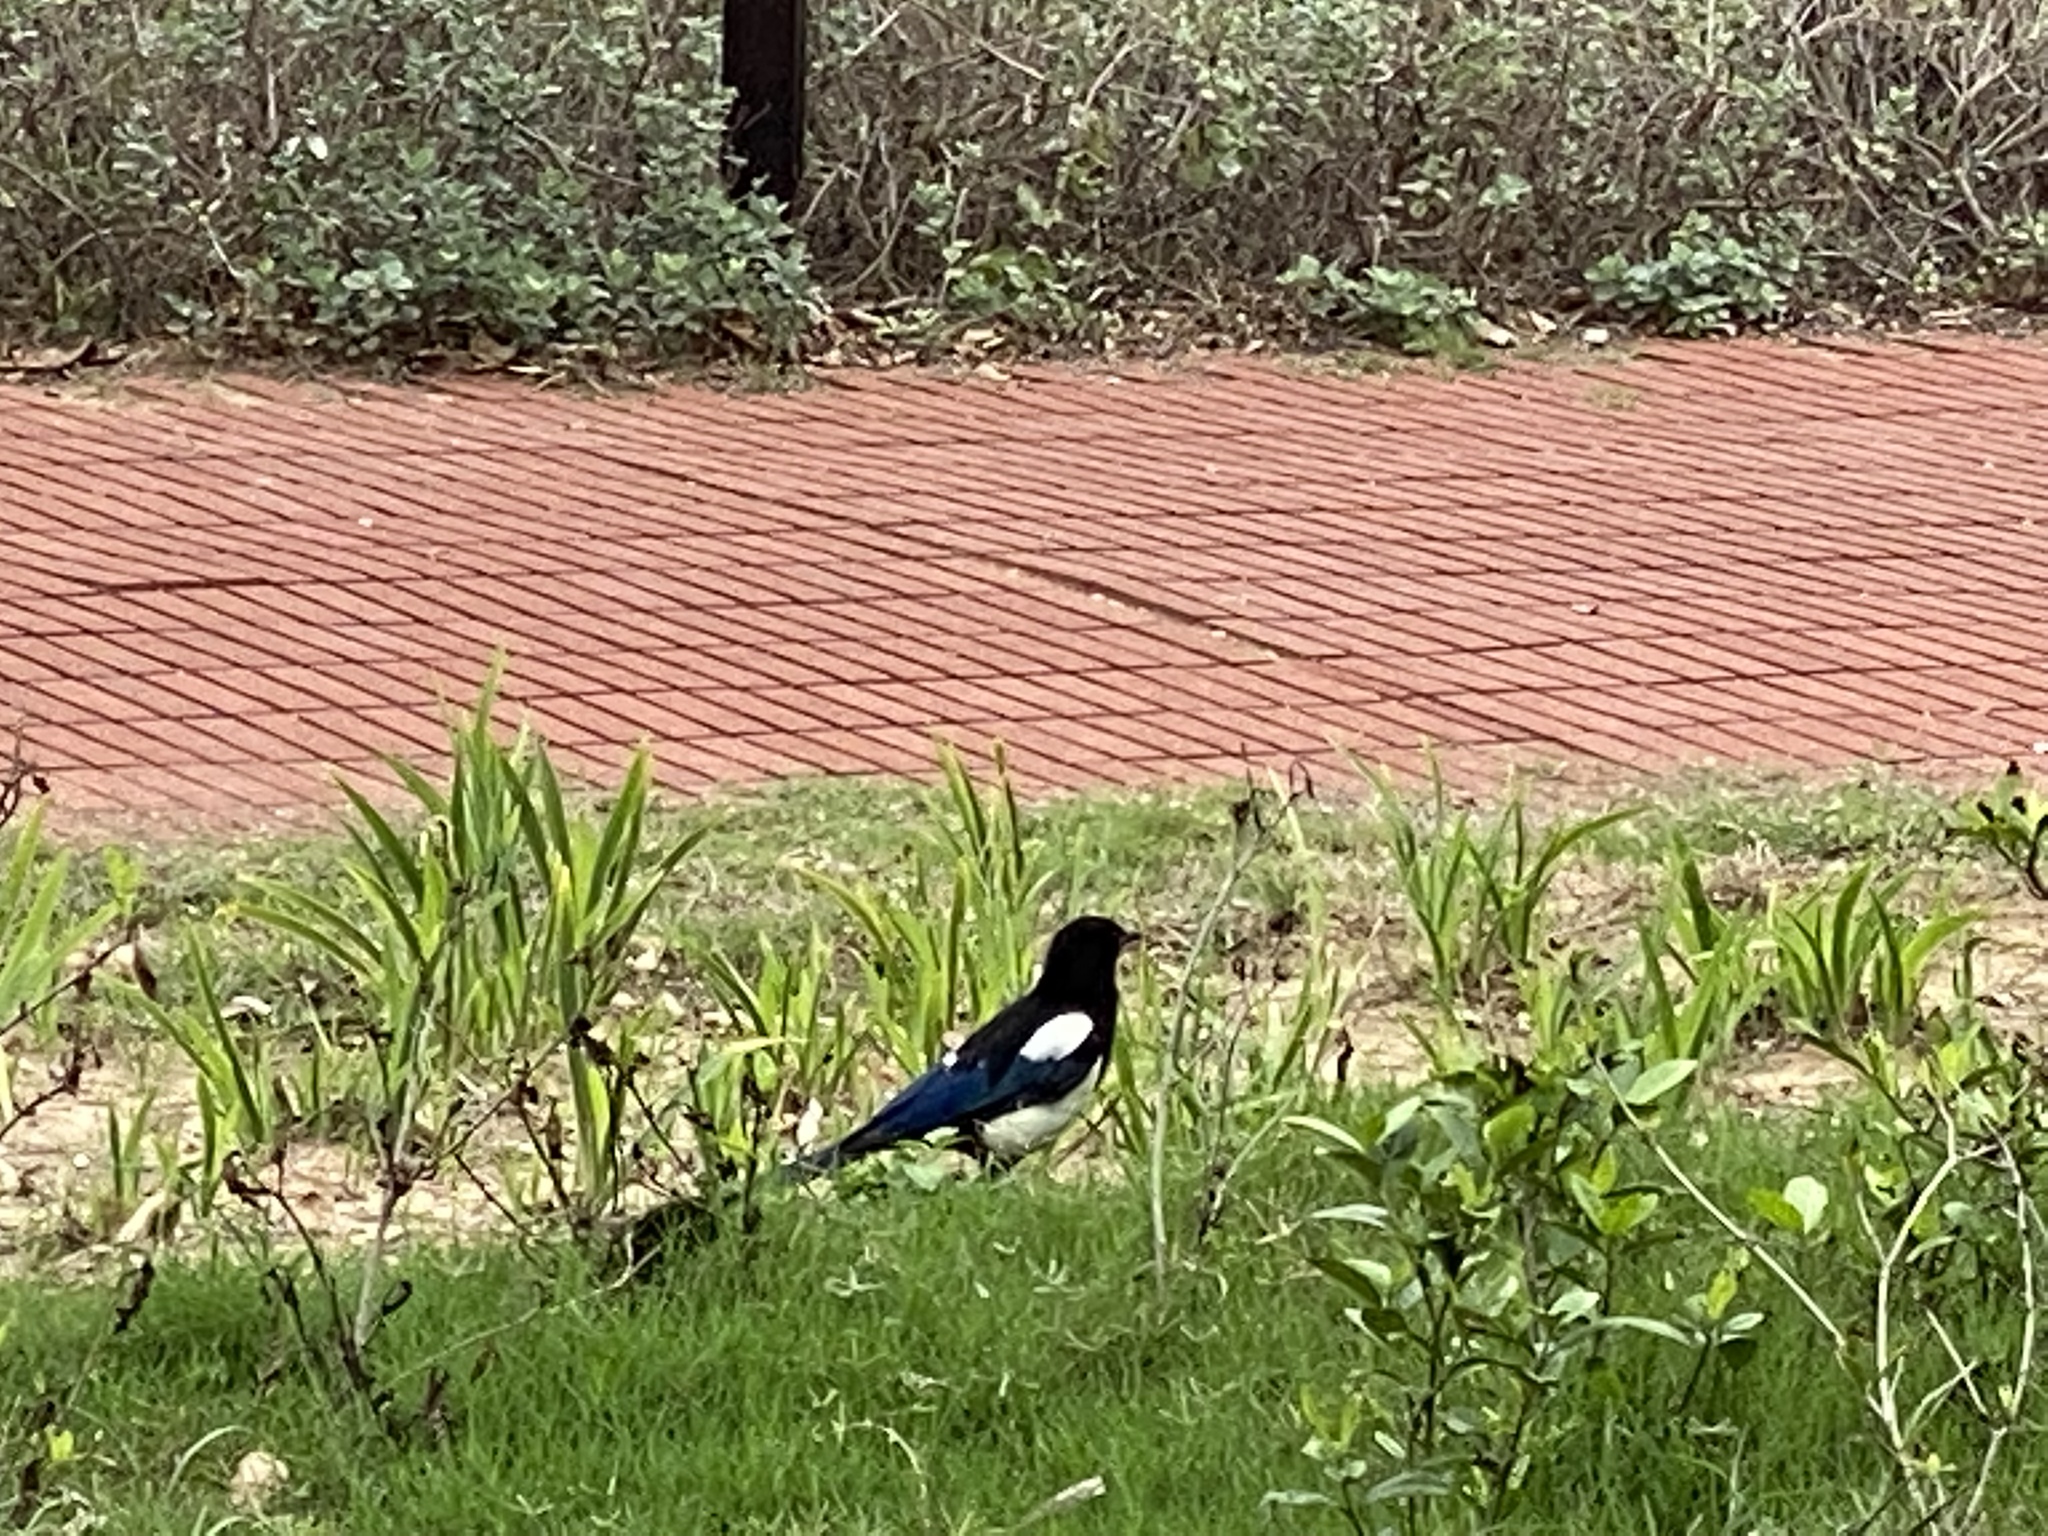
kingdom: Animalia
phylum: Chordata
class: Aves
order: Passeriformes
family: Corvidae
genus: Pica
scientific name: Pica serica
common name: Oriental magpie
